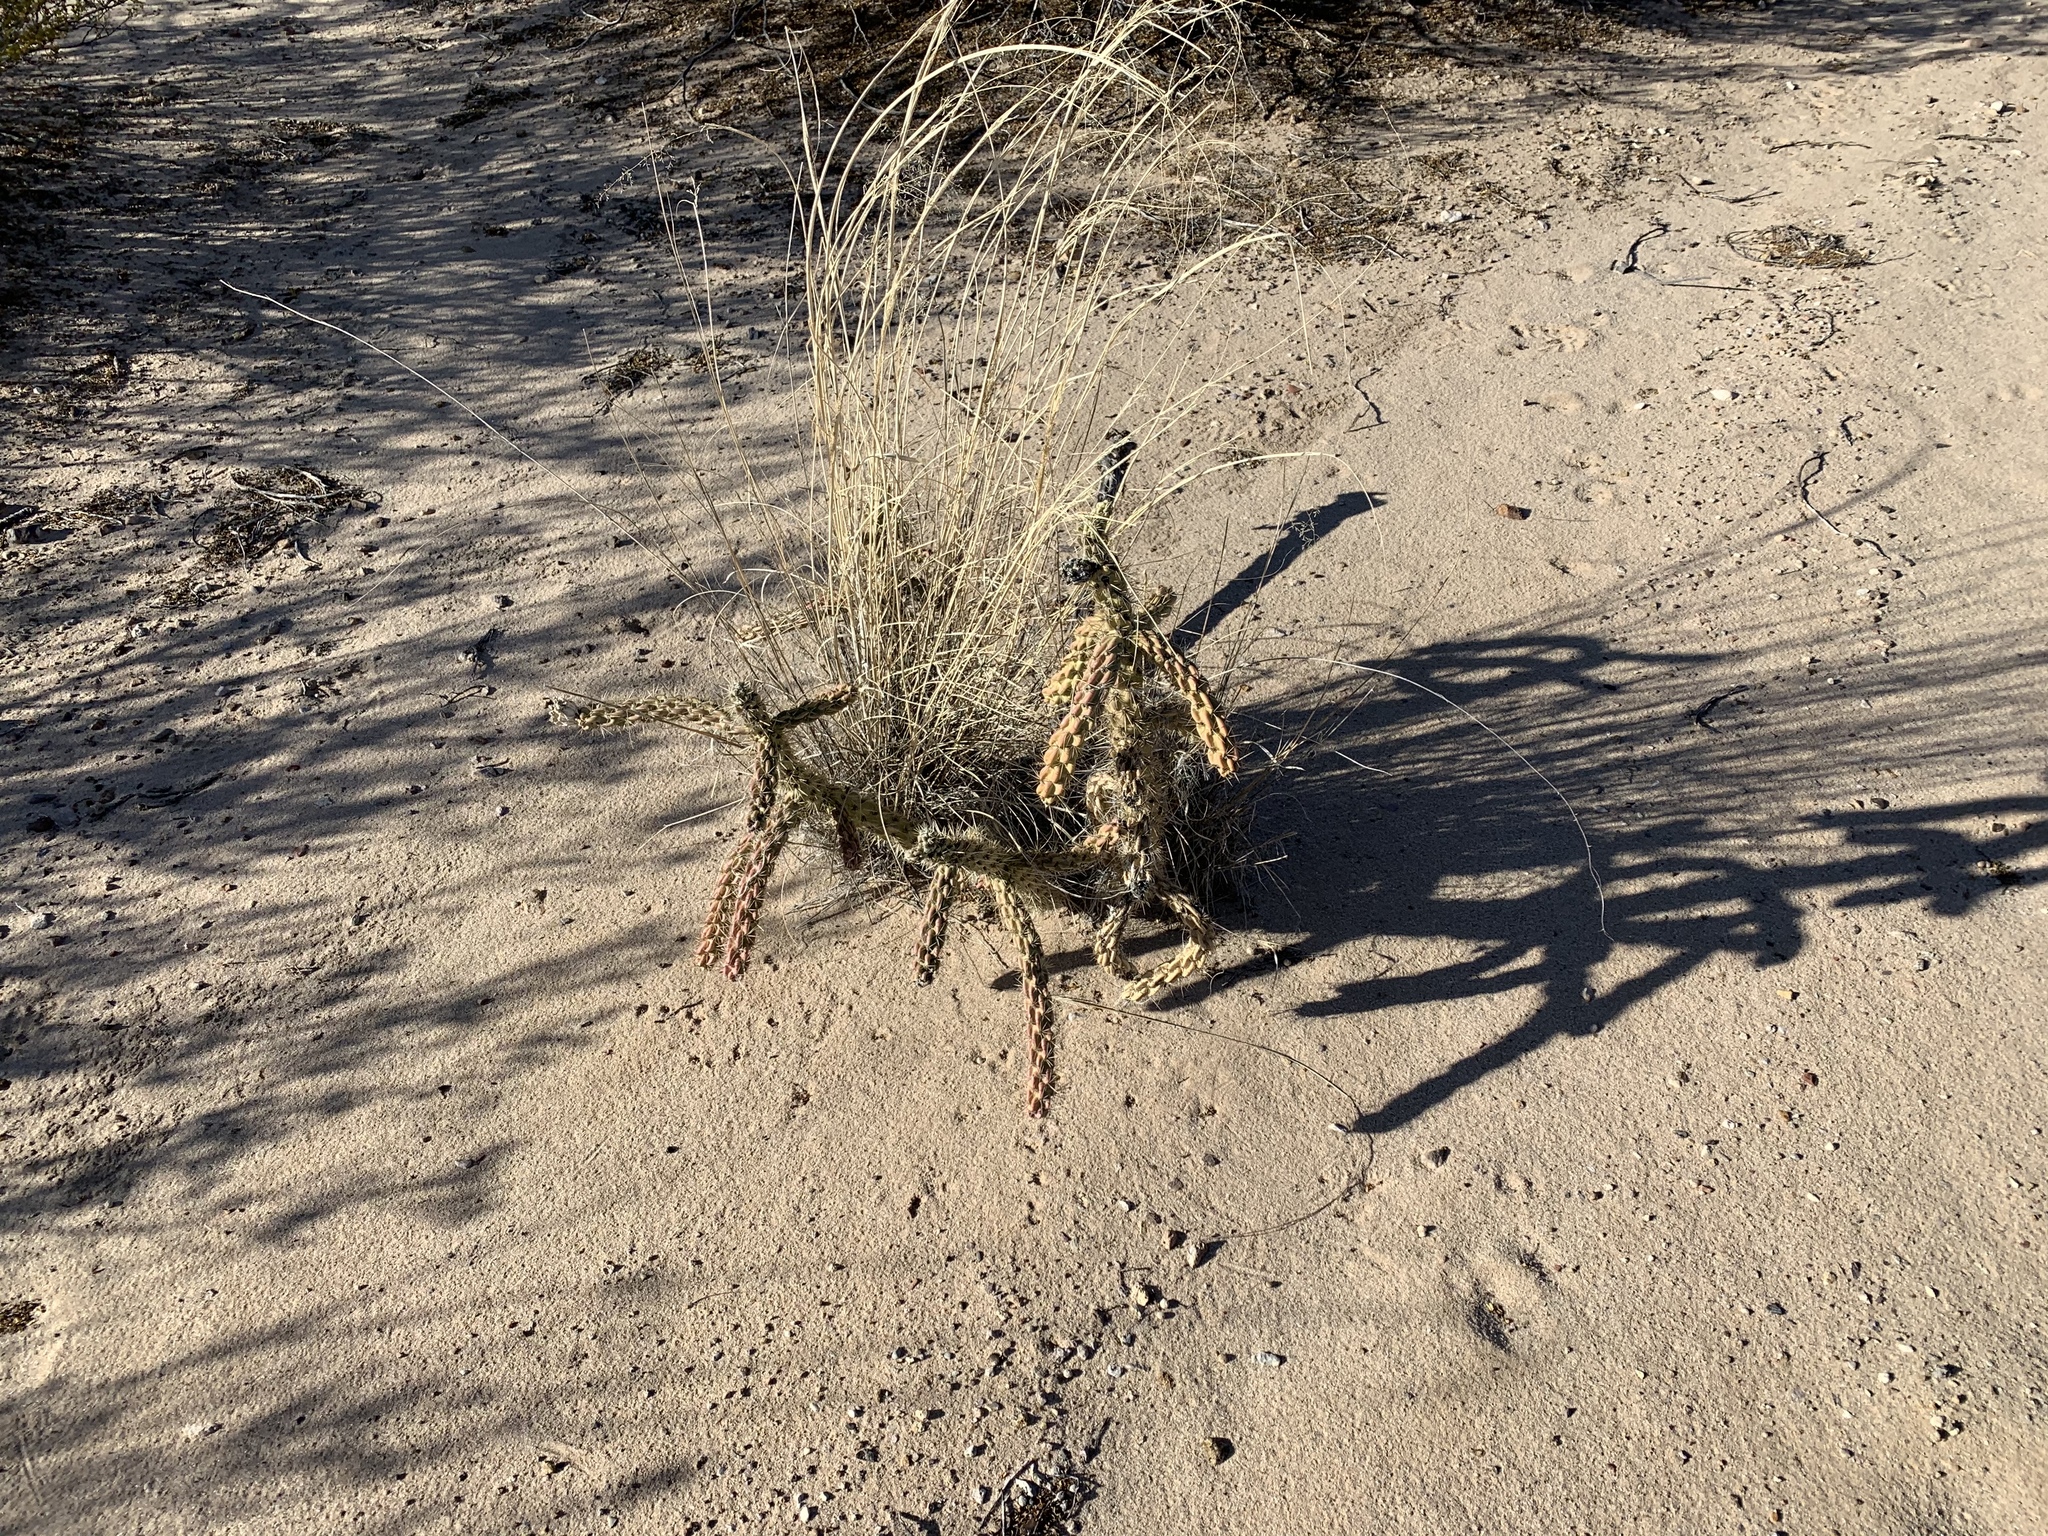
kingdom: Plantae
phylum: Tracheophyta
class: Magnoliopsida
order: Caryophyllales
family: Cactaceae
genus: Cylindropuntia
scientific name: Cylindropuntia imbricata
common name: Candelabrum cactus
